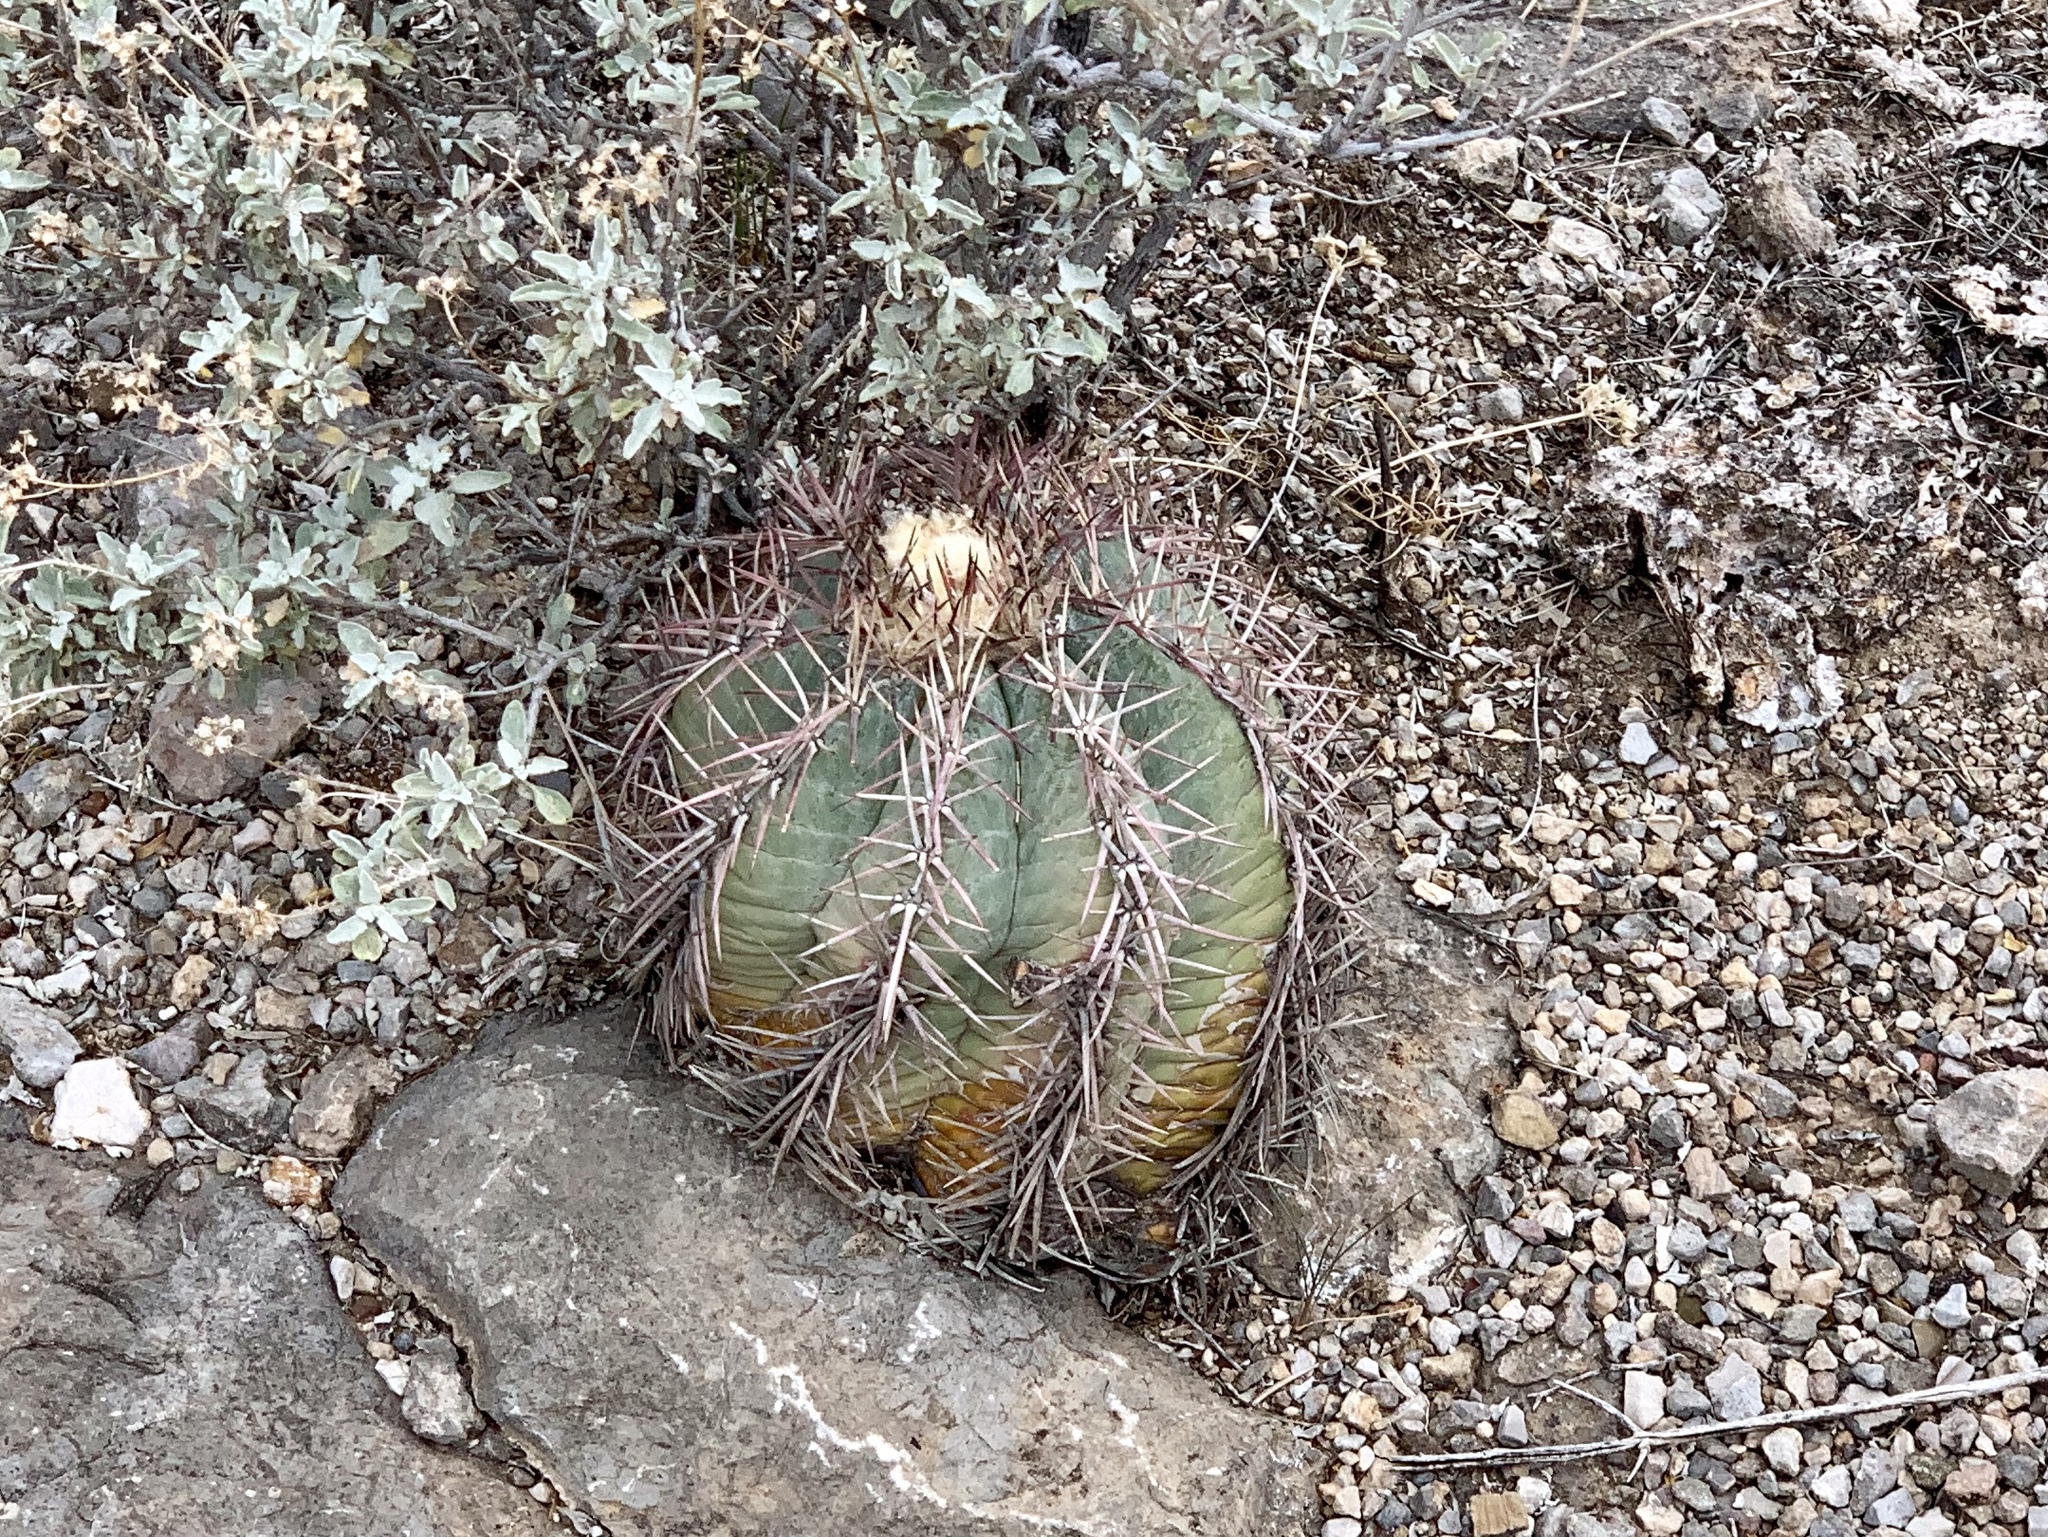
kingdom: Plantae
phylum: Tracheophyta
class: Magnoliopsida
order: Caryophyllales
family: Cactaceae
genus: Echinocactus
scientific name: Echinocactus horizonthalonius
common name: Devilshead
